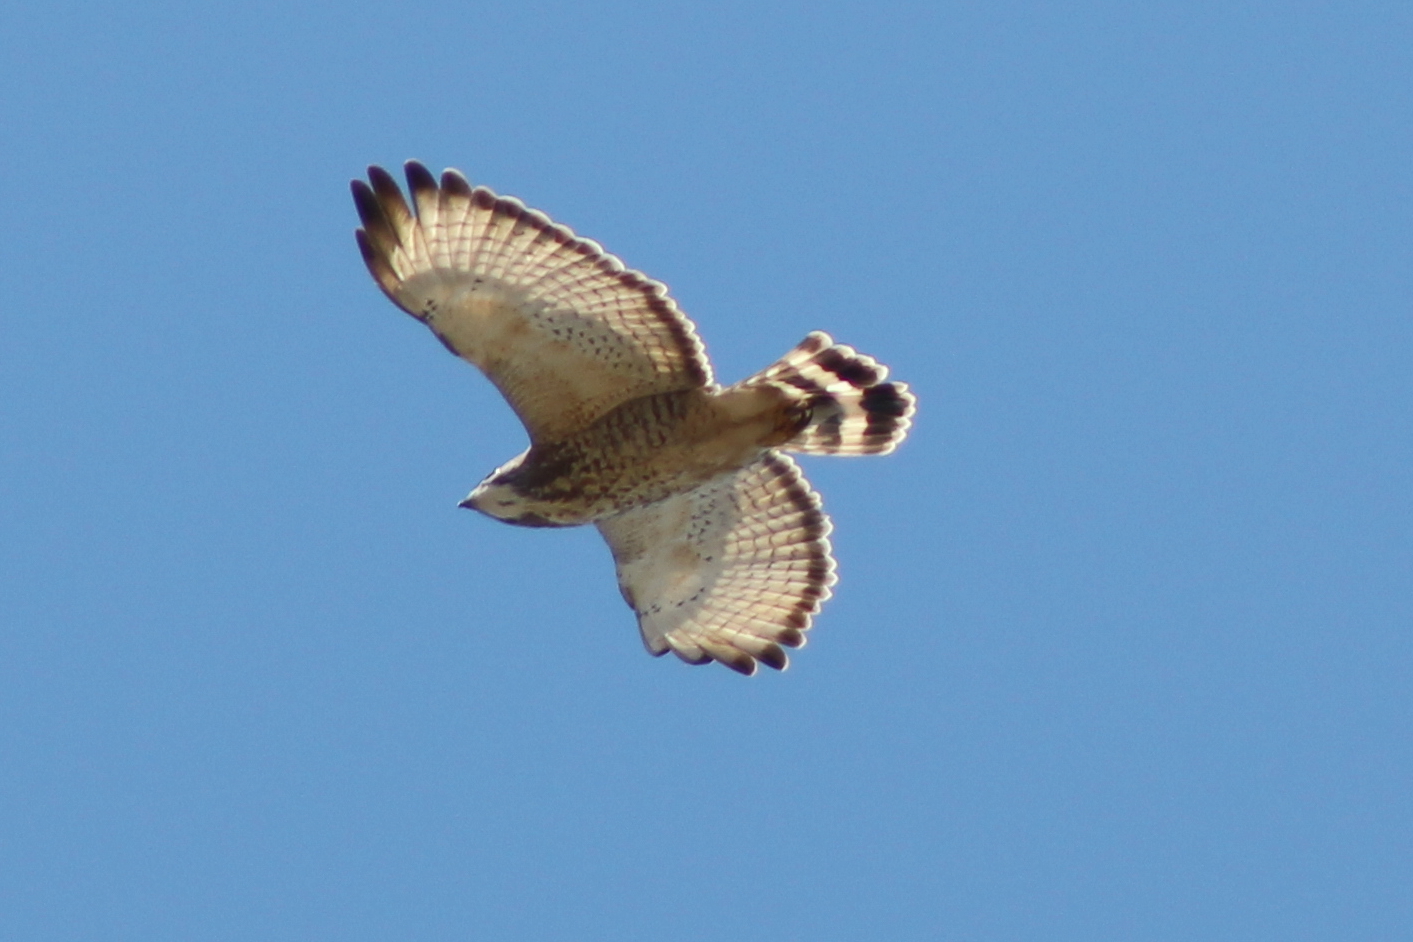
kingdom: Animalia
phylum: Chordata
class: Aves
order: Accipitriformes
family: Accipitridae
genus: Buteo
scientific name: Buteo platypterus
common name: Broad-winged hawk
